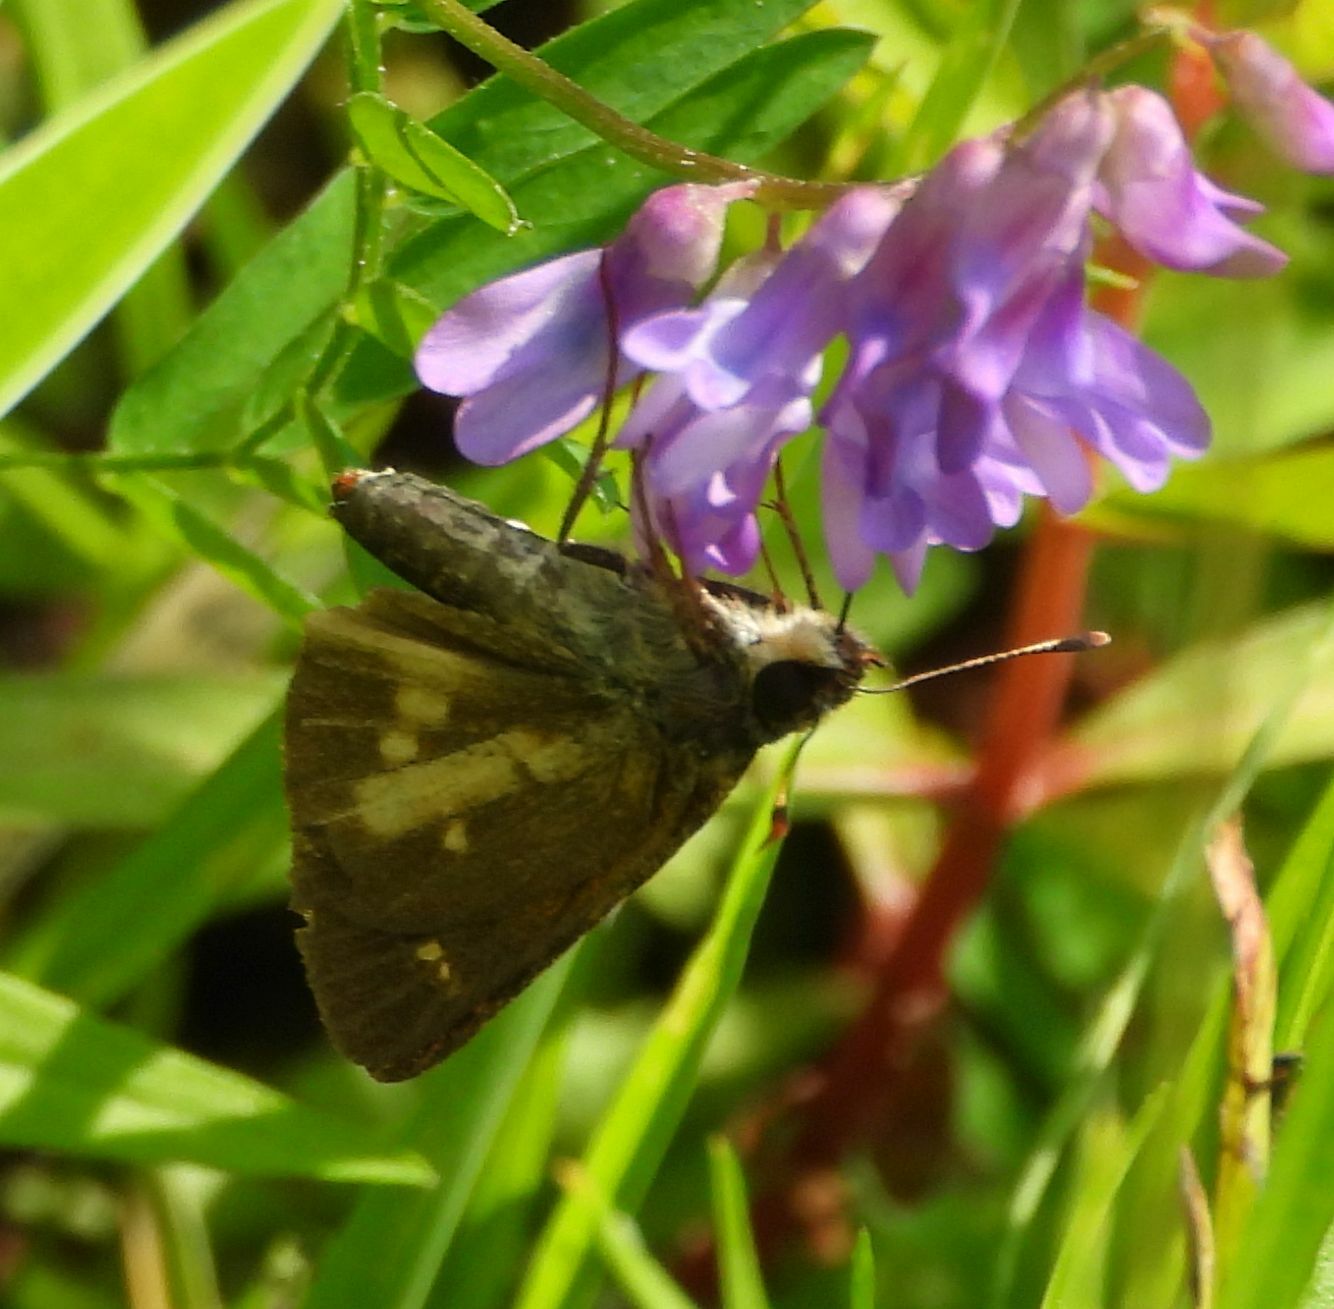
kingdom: Animalia
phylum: Arthropoda
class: Insecta
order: Lepidoptera
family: Hesperiidae
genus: Poanes
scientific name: Poanes viator
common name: Broad-winged skipper
